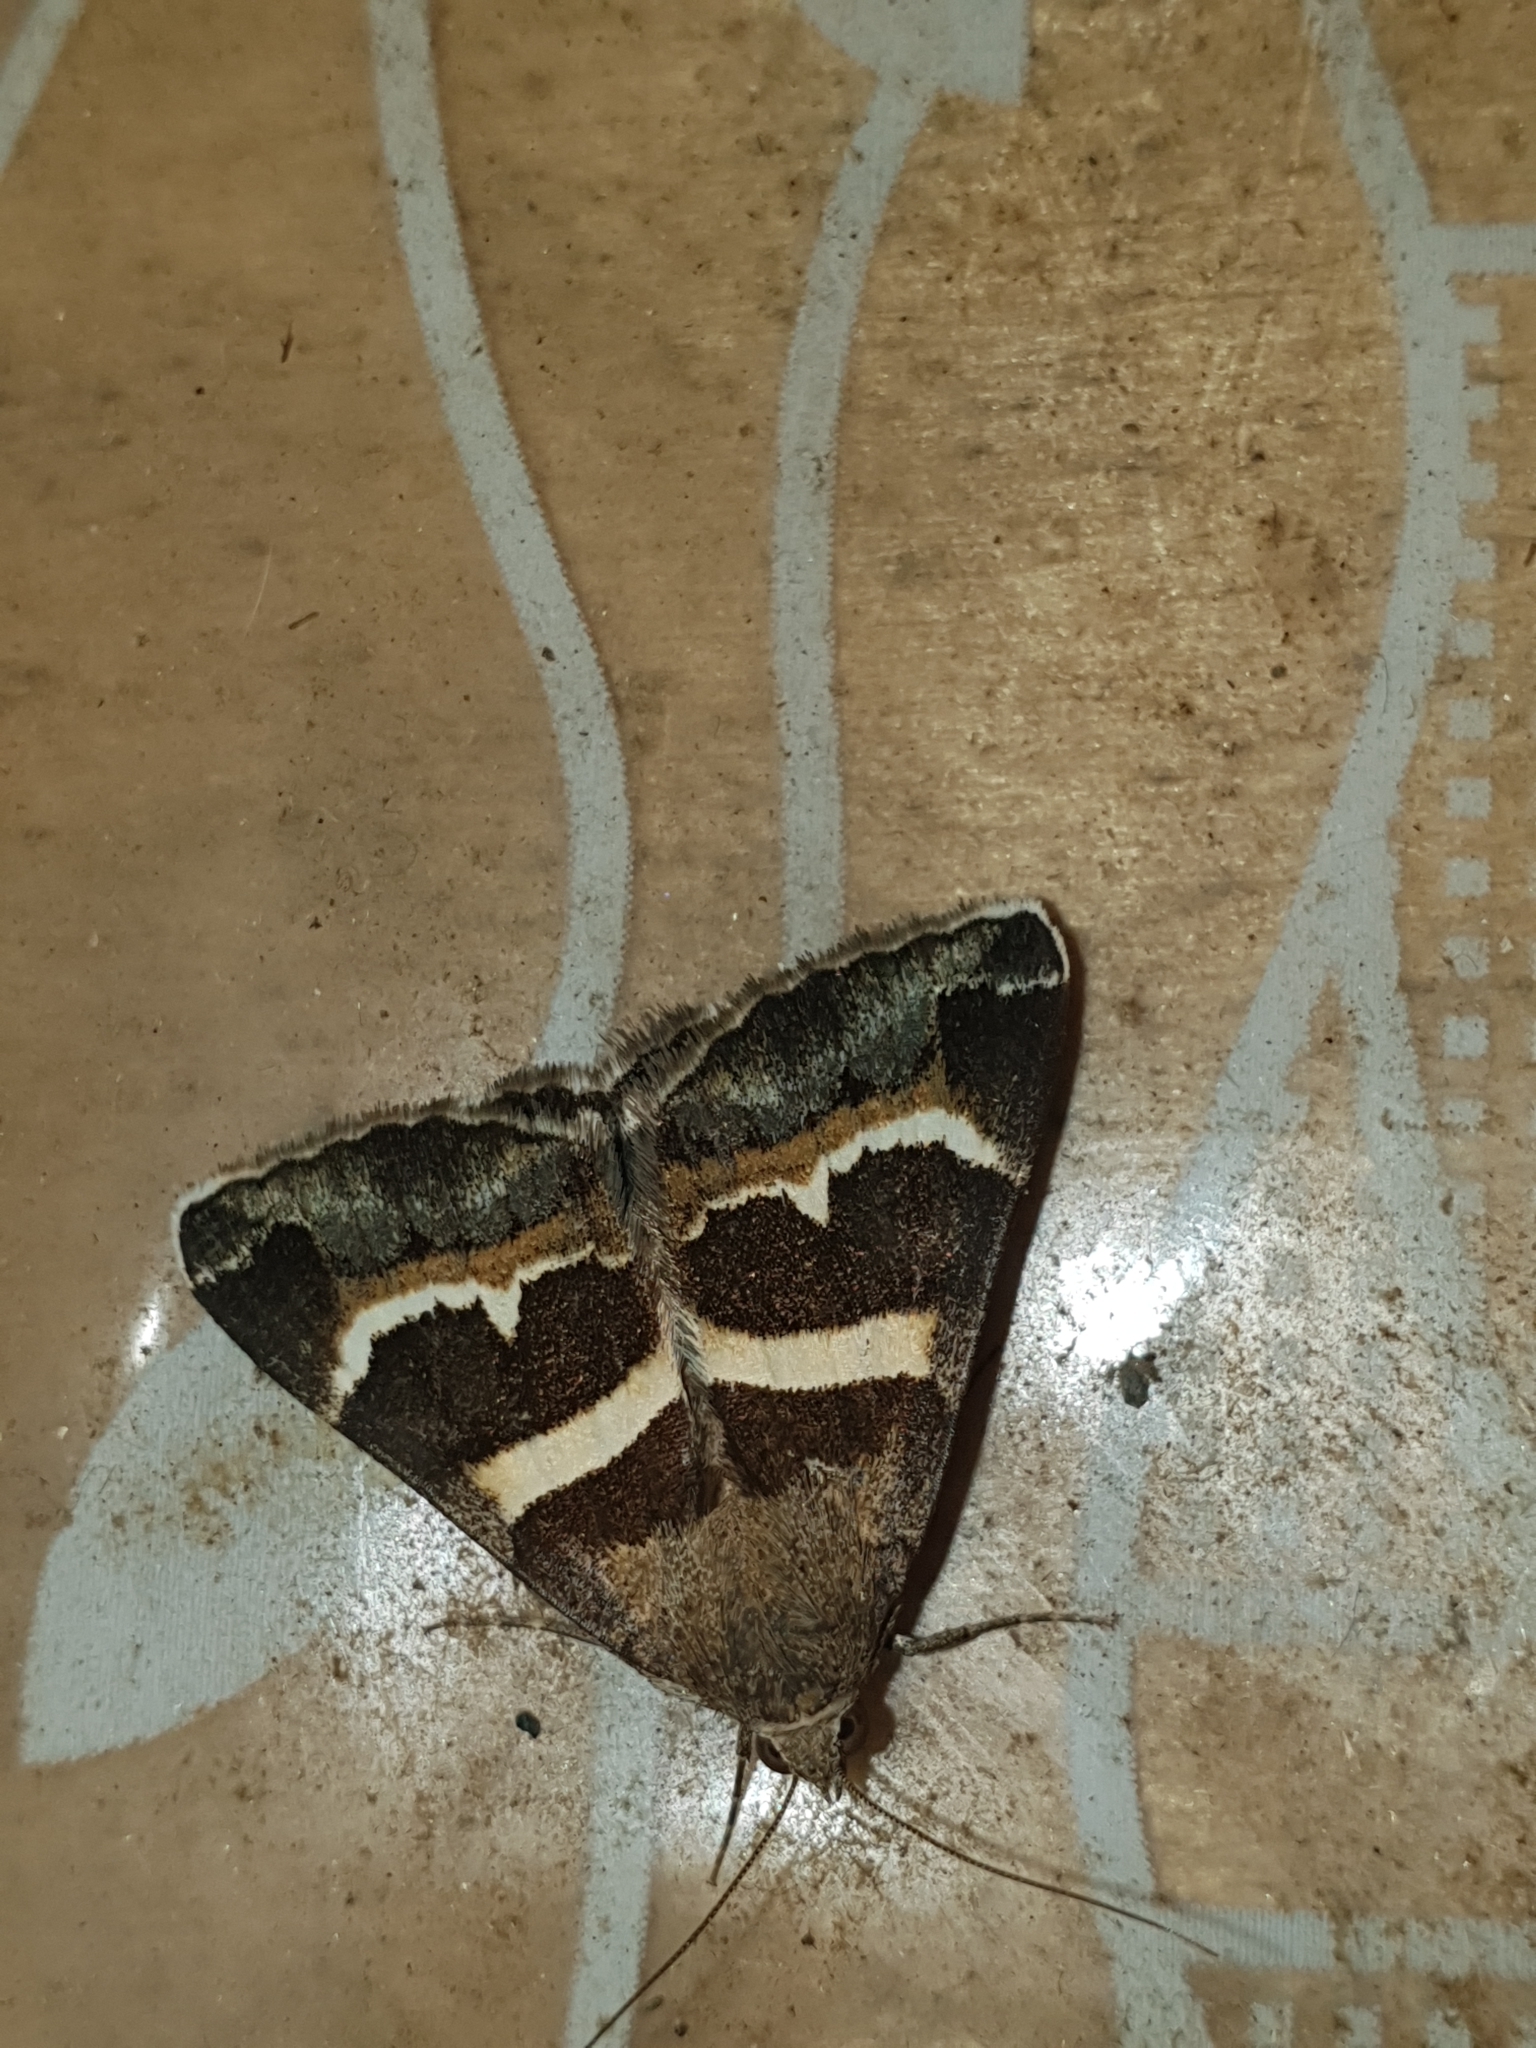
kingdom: Animalia
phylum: Arthropoda
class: Insecta
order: Lepidoptera
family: Erebidae
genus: Grammodes
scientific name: Grammodes stolida
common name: Geometrician
